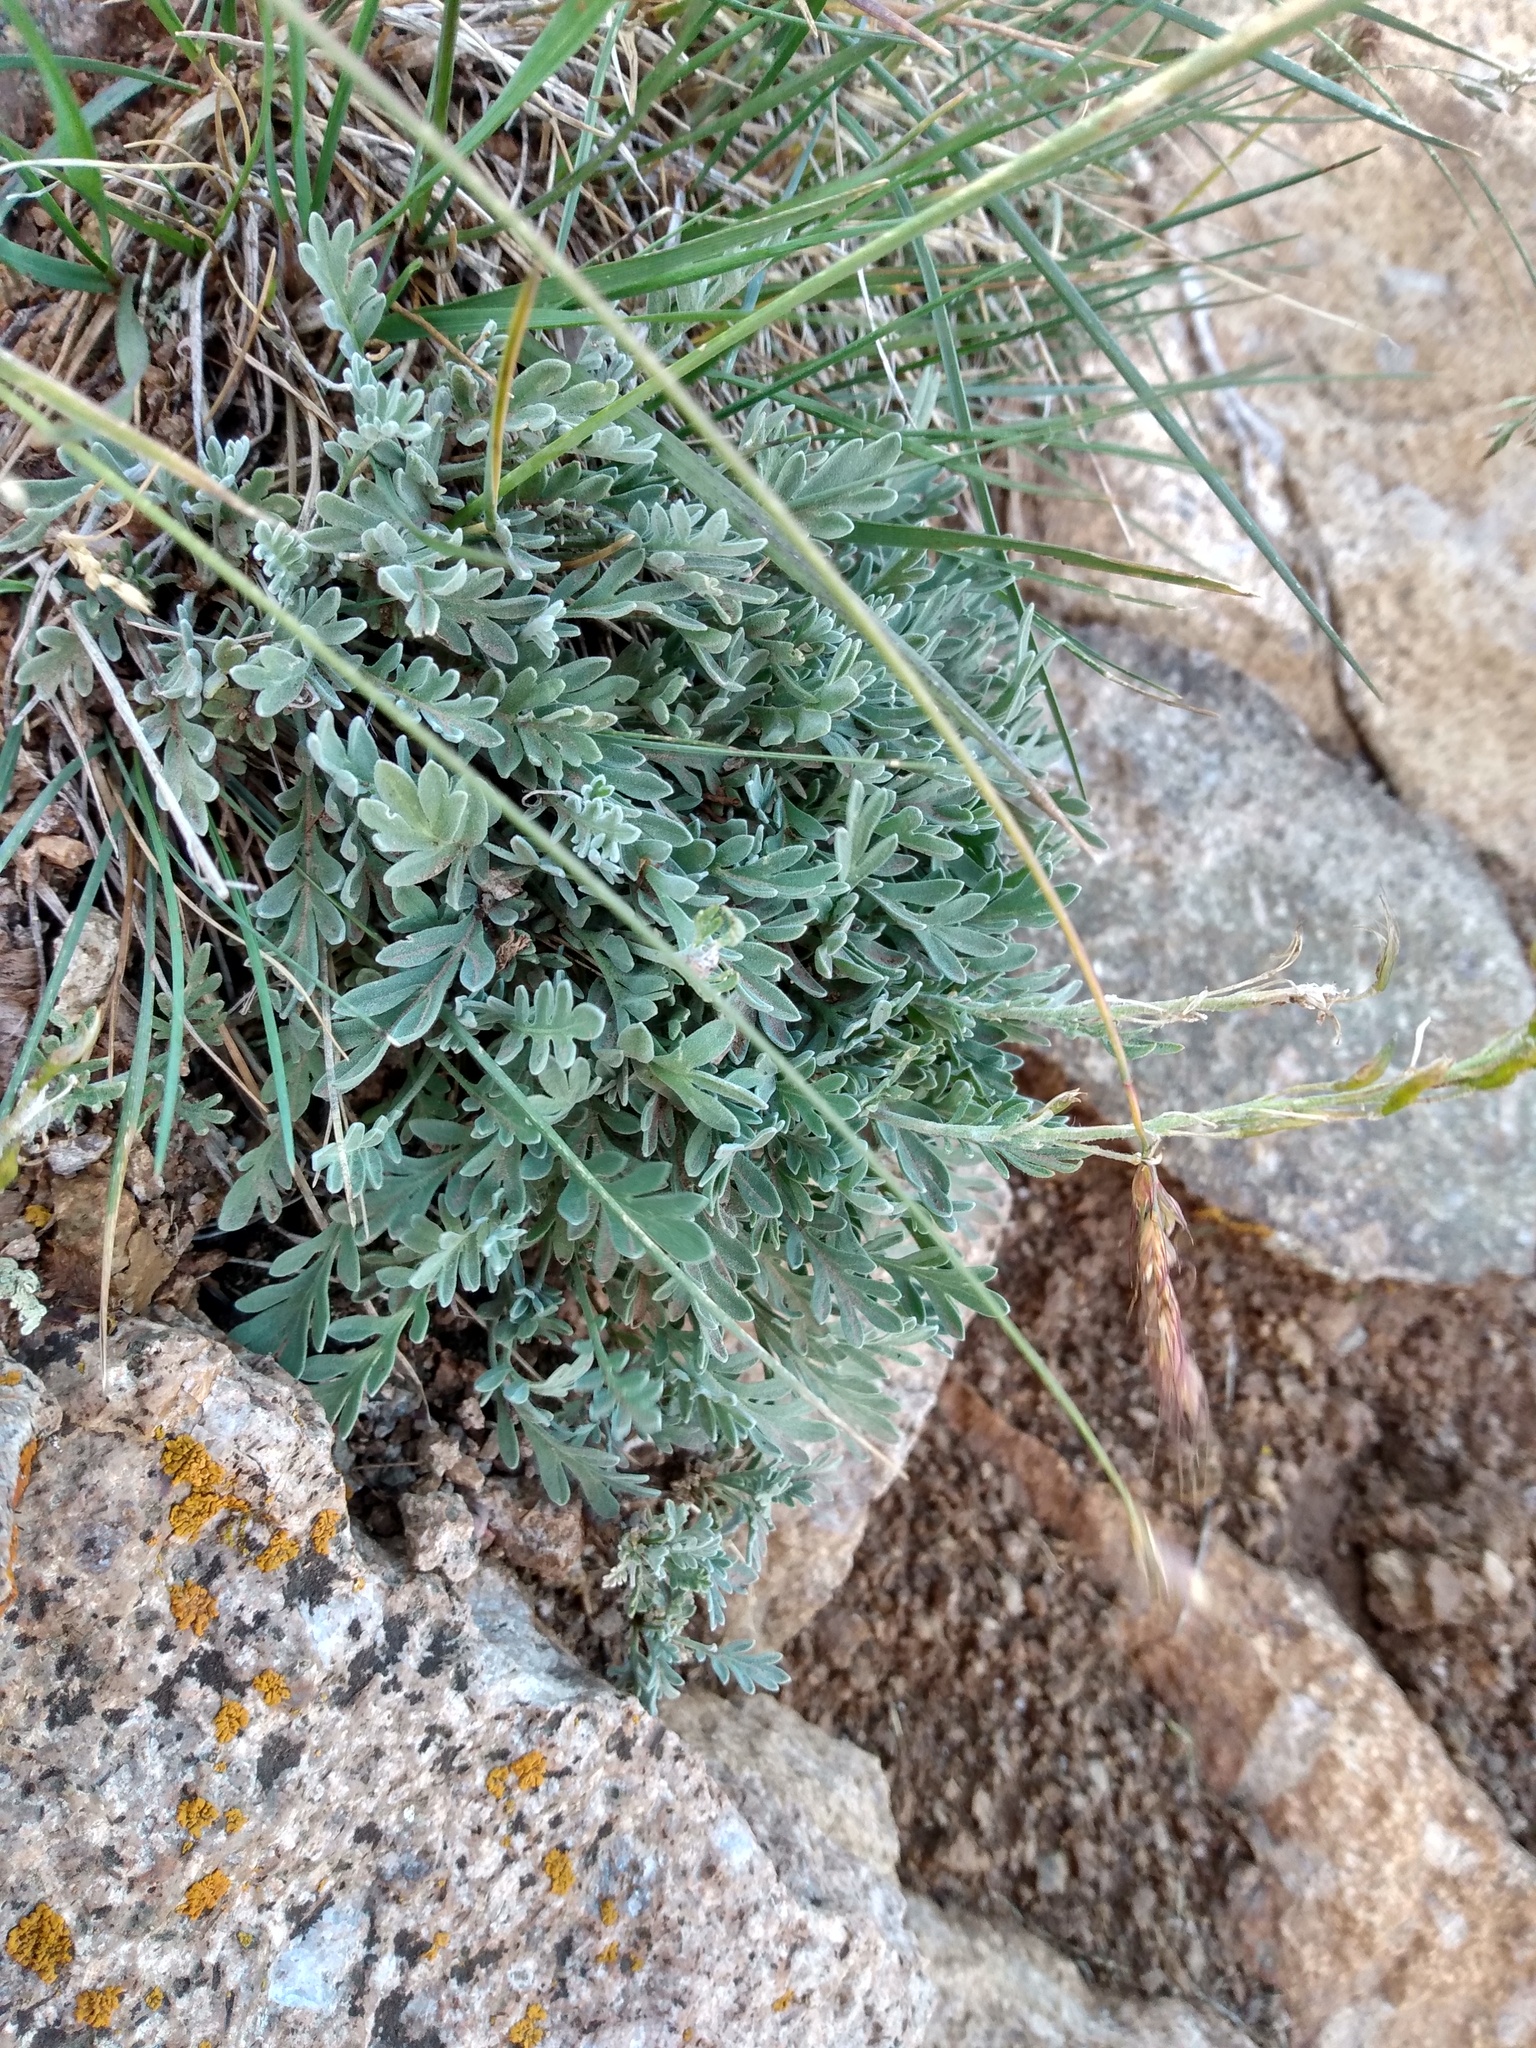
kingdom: Plantae
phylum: Tracheophyta
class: Magnoliopsida
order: Brassicales
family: Brassicaceae
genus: Smelowskia
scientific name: Smelowskia americana
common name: American false candytuft
